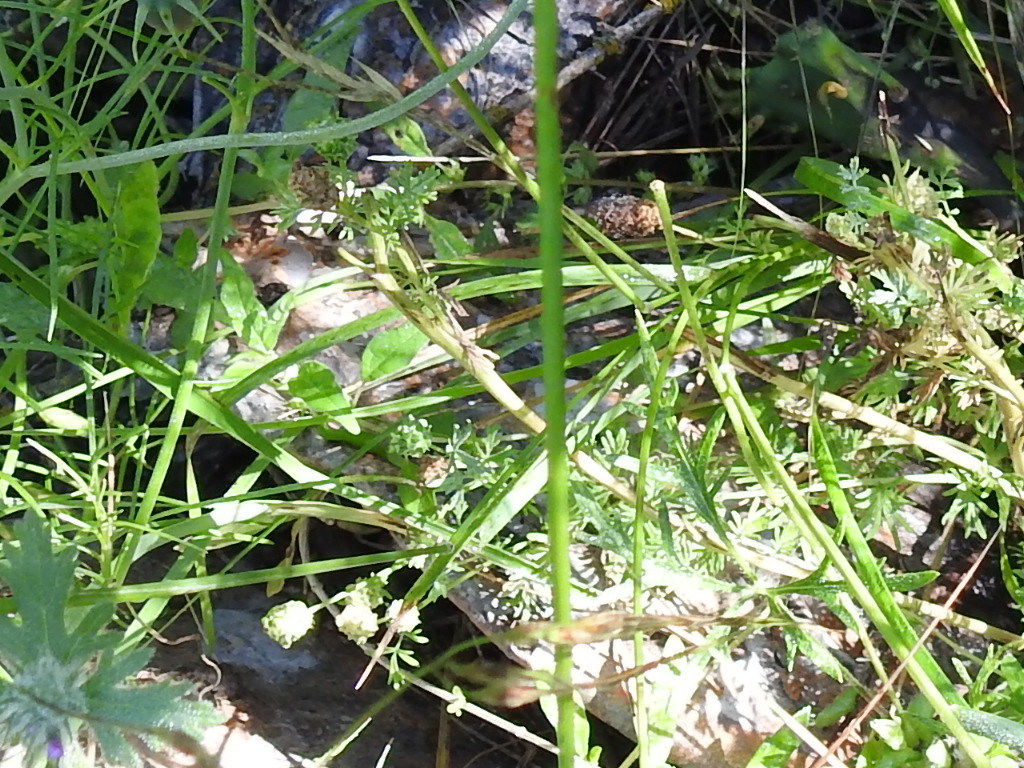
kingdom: Plantae
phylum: Tracheophyta
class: Magnoliopsida
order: Rosales
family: Rosaceae
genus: Poteridium
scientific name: Poteridium annuum
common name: Annual burnet
